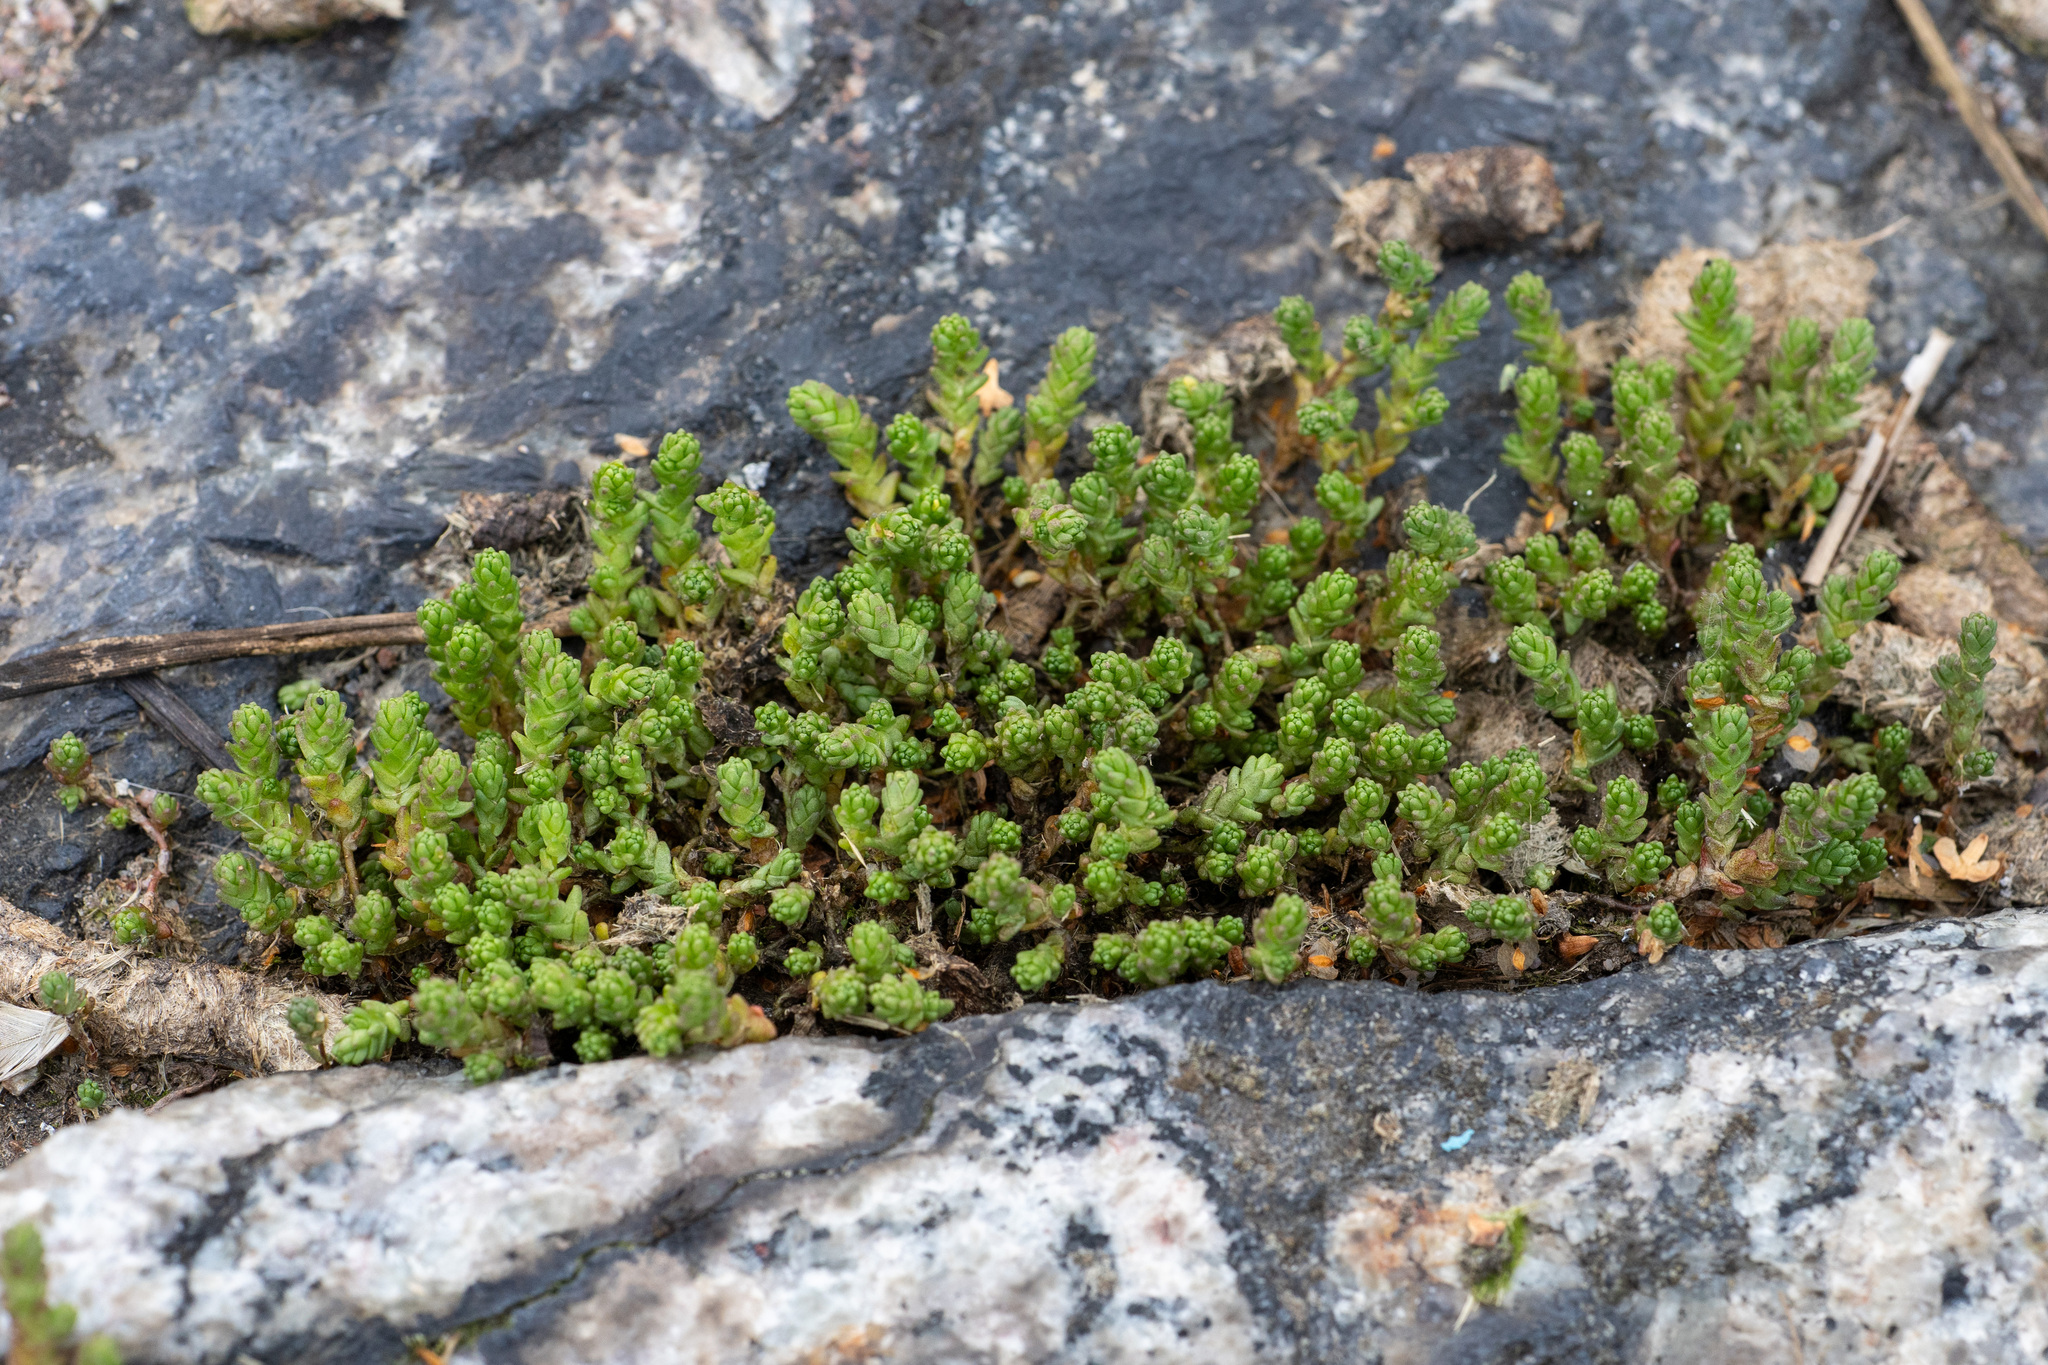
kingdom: Plantae
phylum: Tracheophyta
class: Magnoliopsida
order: Saxifragales
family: Crassulaceae
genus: Sedum
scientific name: Sedum acre
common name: Biting stonecrop
